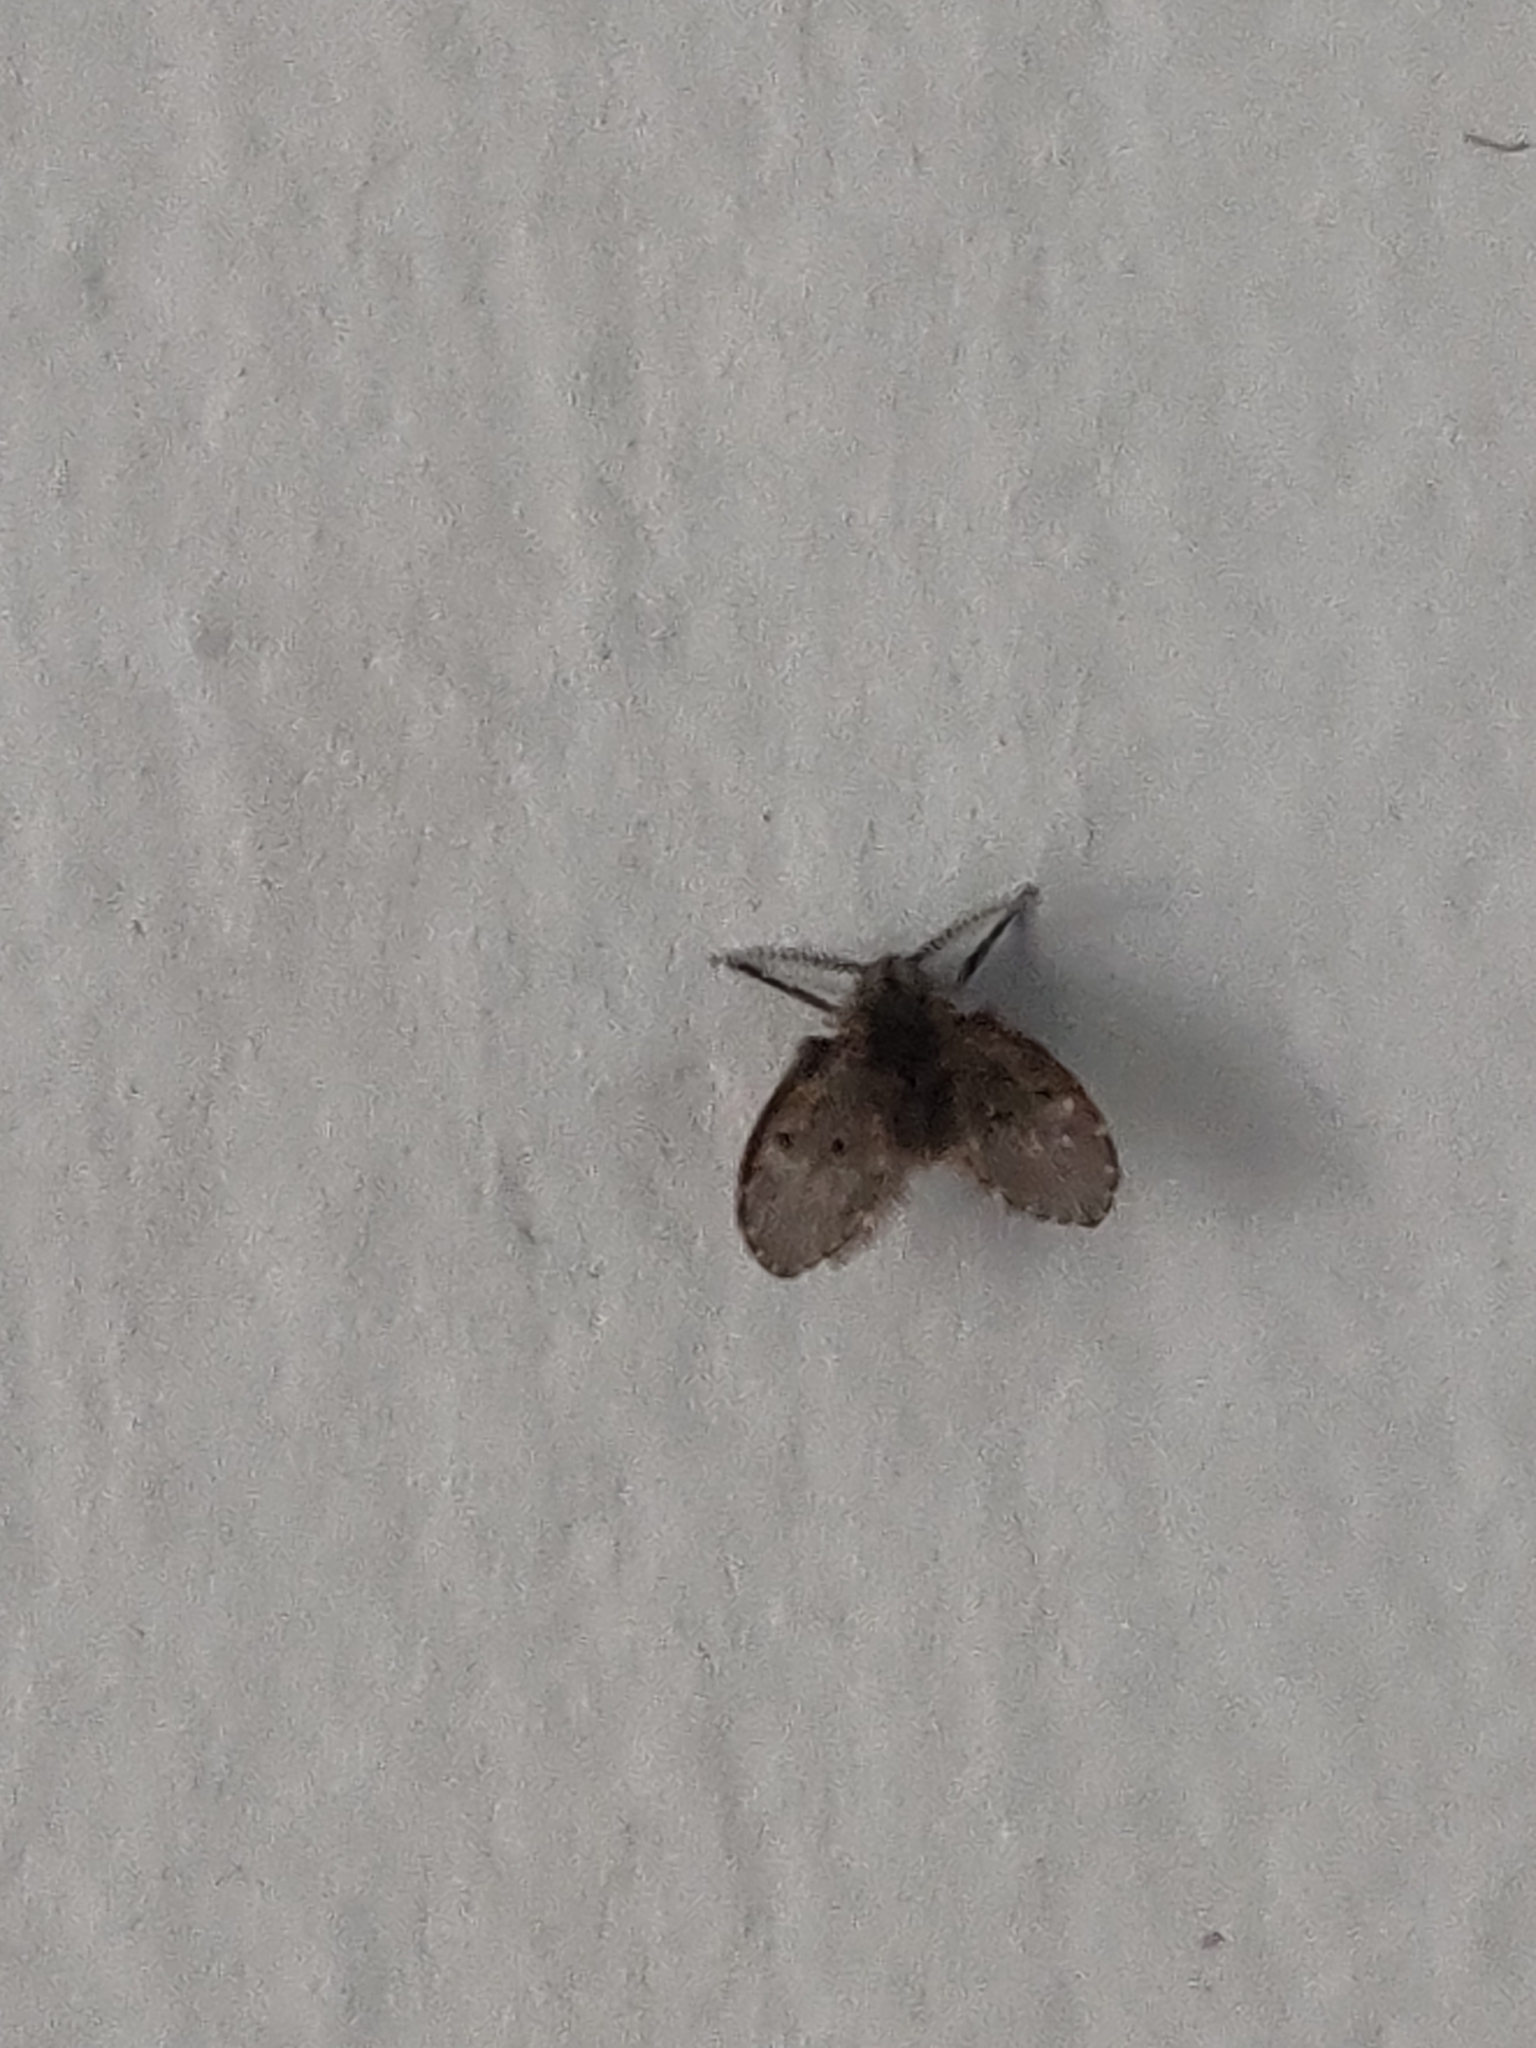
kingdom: Animalia
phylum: Arthropoda
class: Insecta
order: Diptera
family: Psychodidae
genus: Clogmia
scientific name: Clogmia albipunctatus
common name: White-spotted moth fly
